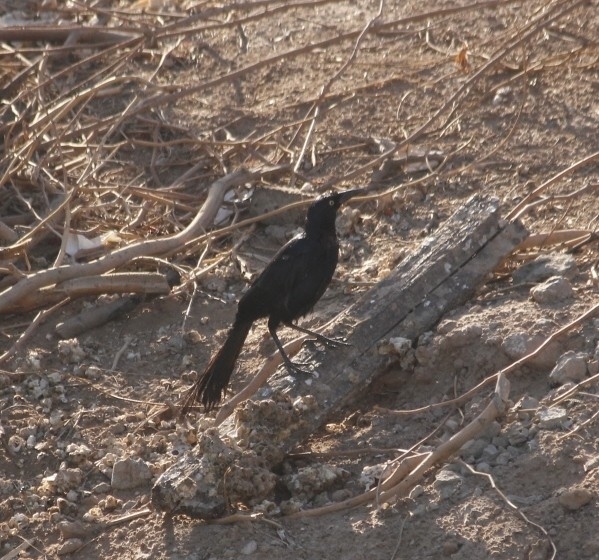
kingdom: Animalia
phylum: Chordata
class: Aves
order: Passeriformes
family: Icteridae
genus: Quiscalus
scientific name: Quiscalus mexicanus
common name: Great-tailed grackle
